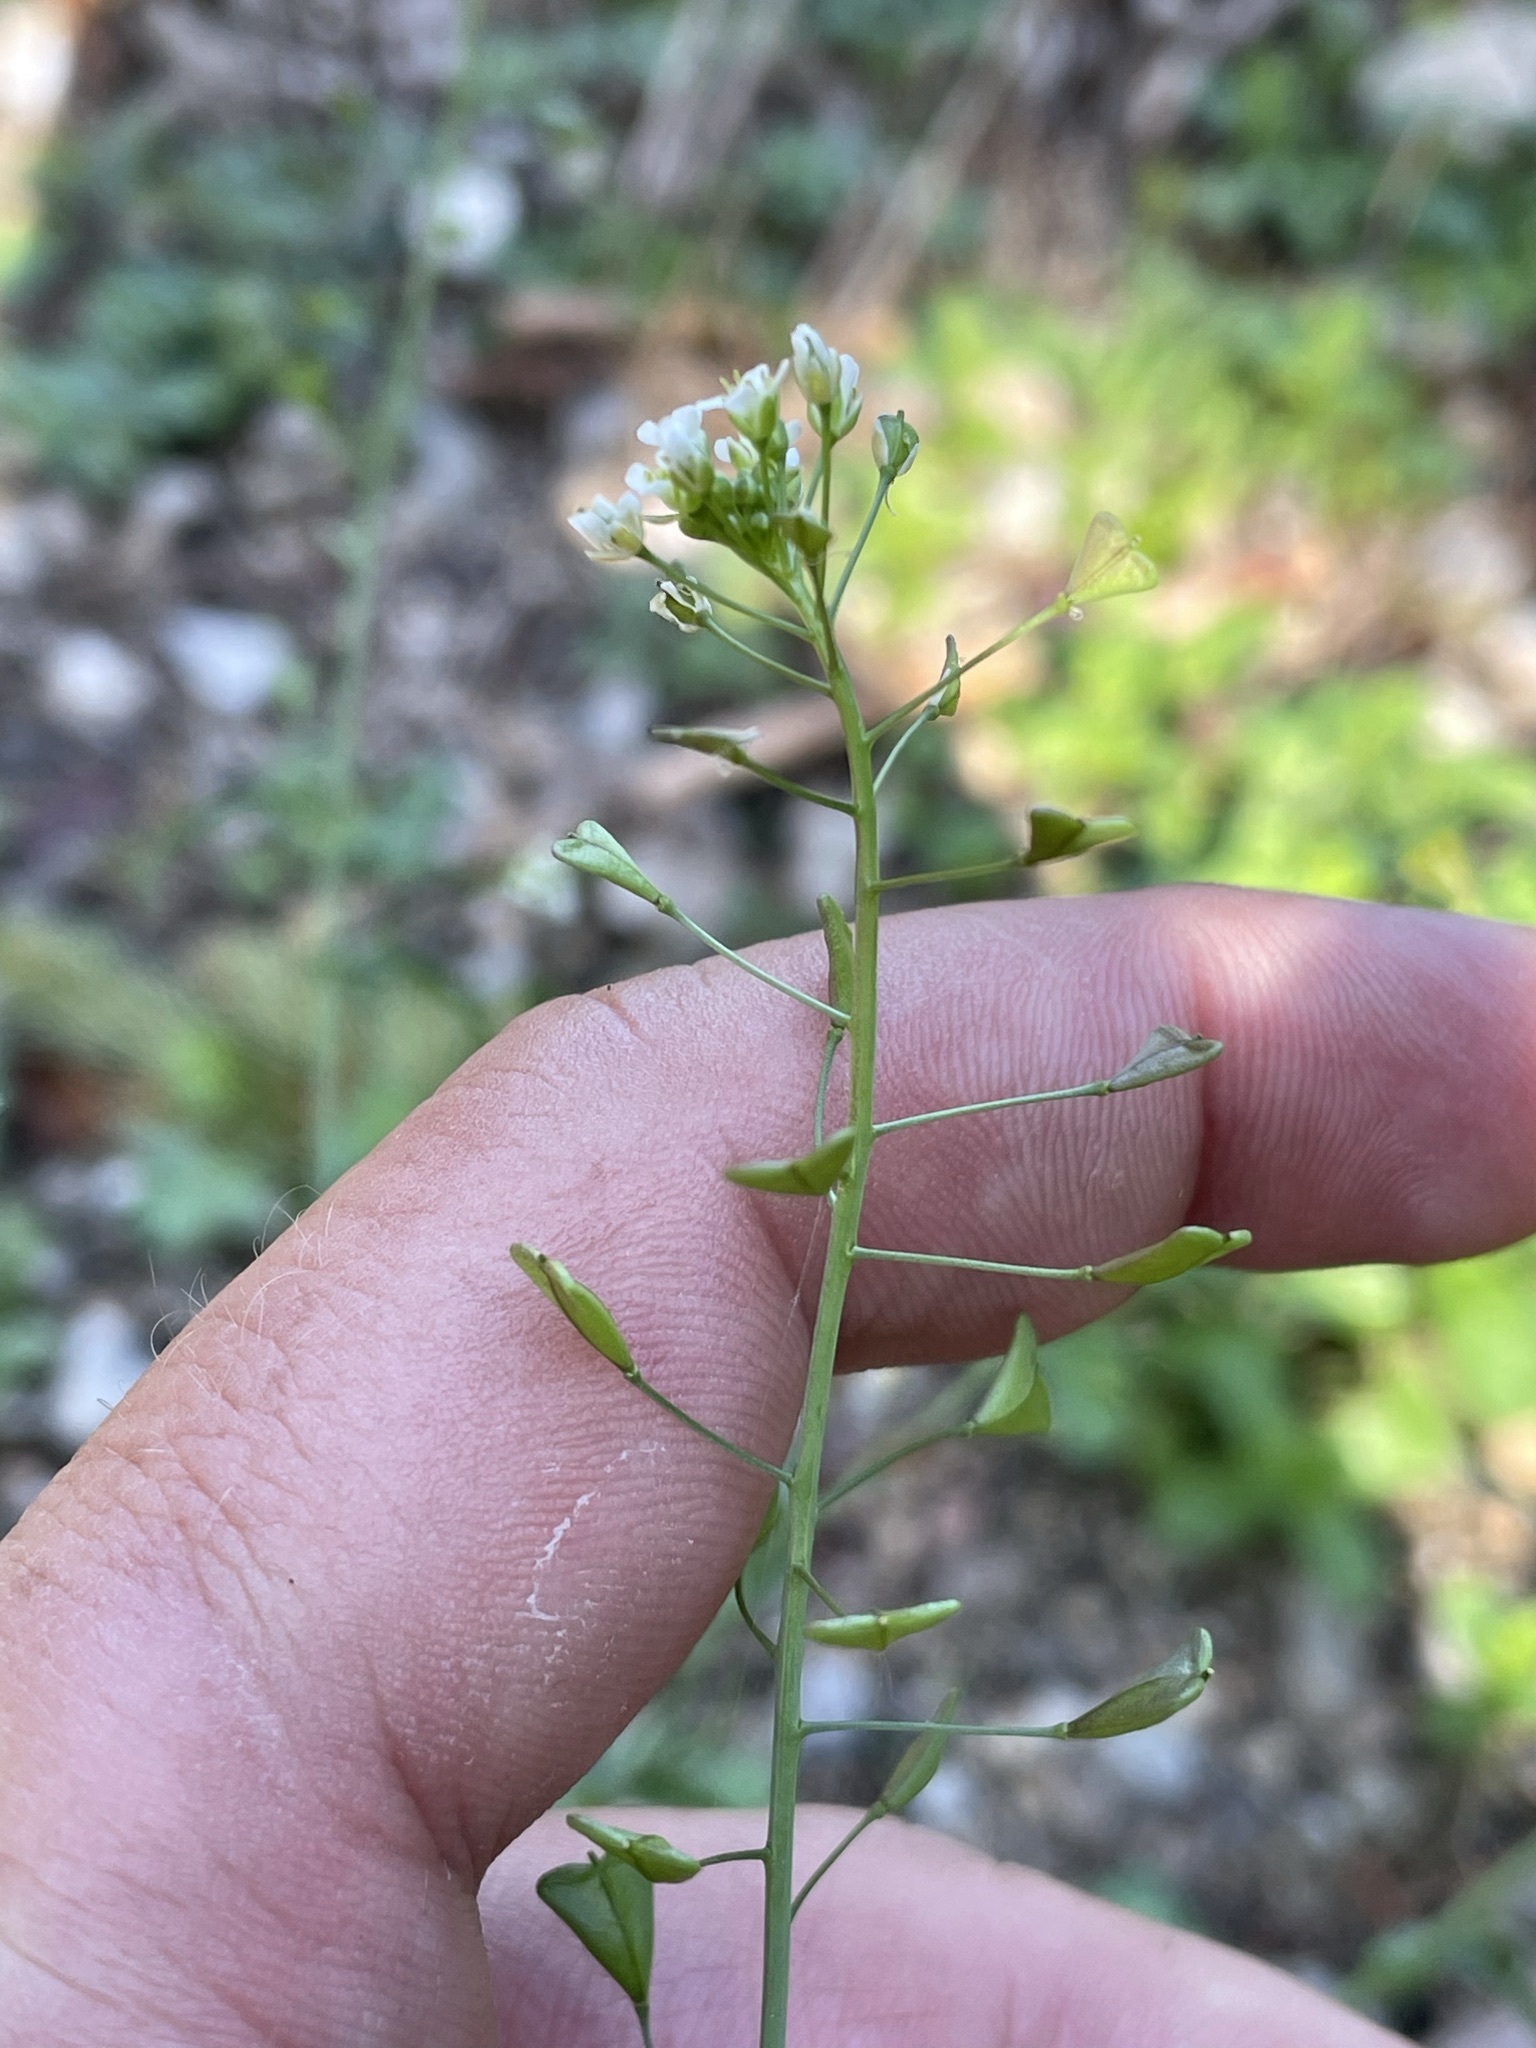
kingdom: Plantae
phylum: Tracheophyta
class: Magnoliopsida
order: Brassicales
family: Brassicaceae
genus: Capsella
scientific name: Capsella bursa-pastoris
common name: Shepherd's purse
